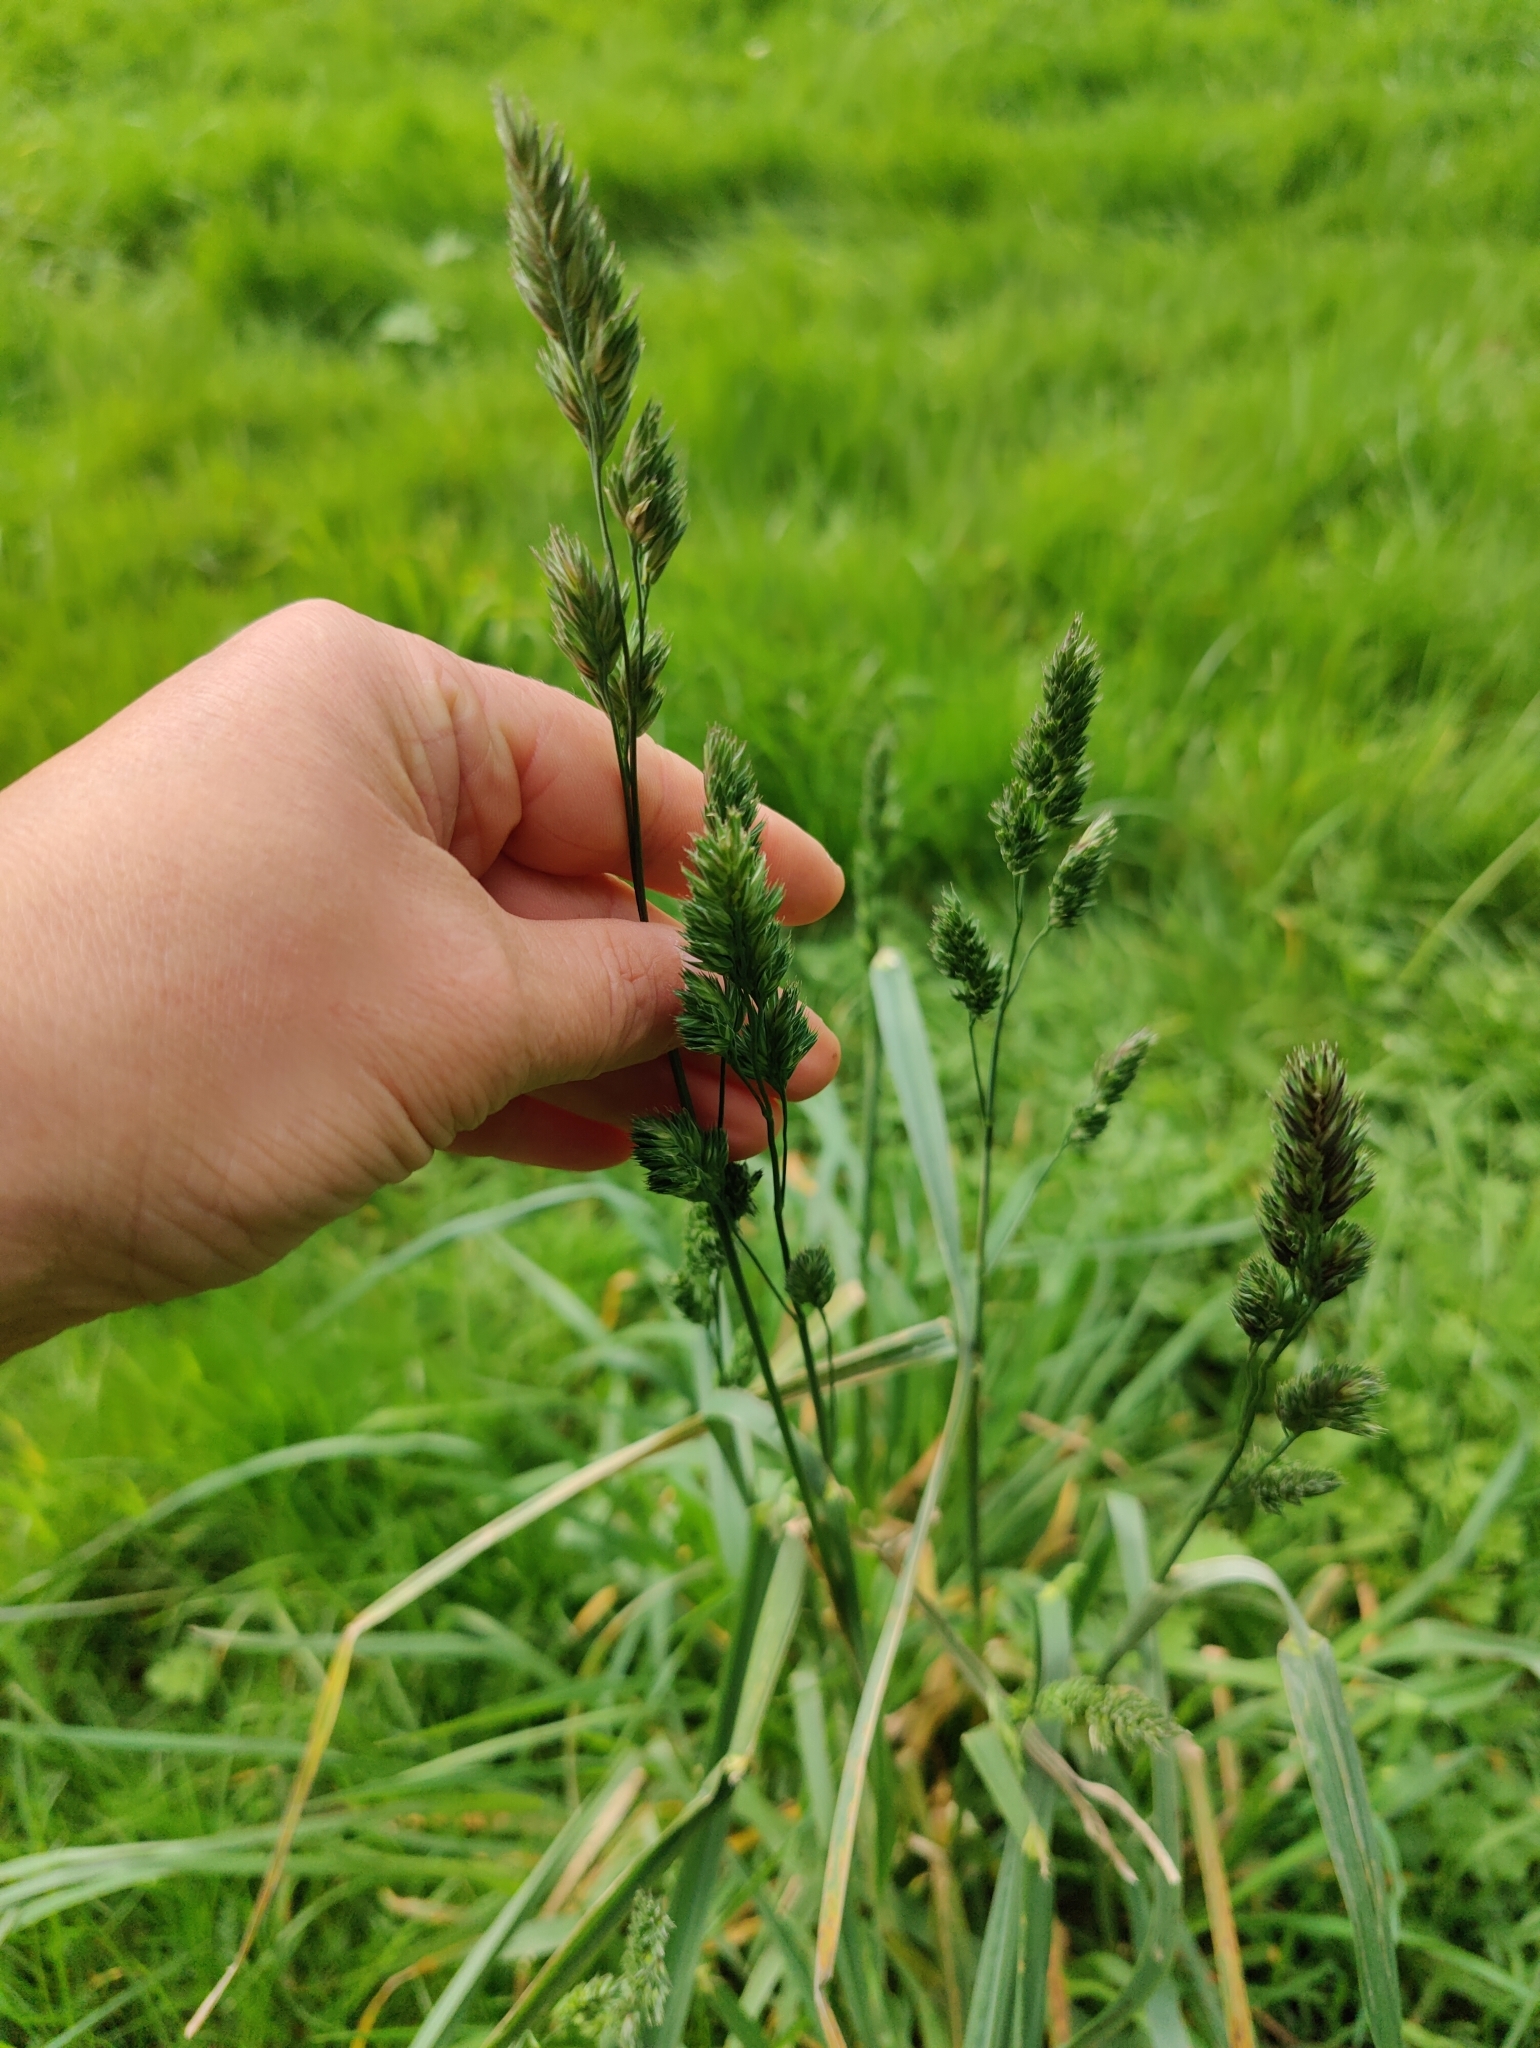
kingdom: Plantae
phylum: Tracheophyta
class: Liliopsida
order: Poales
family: Poaceae
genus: Dactylis
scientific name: Dactylis glomerata
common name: Orchardgrass
